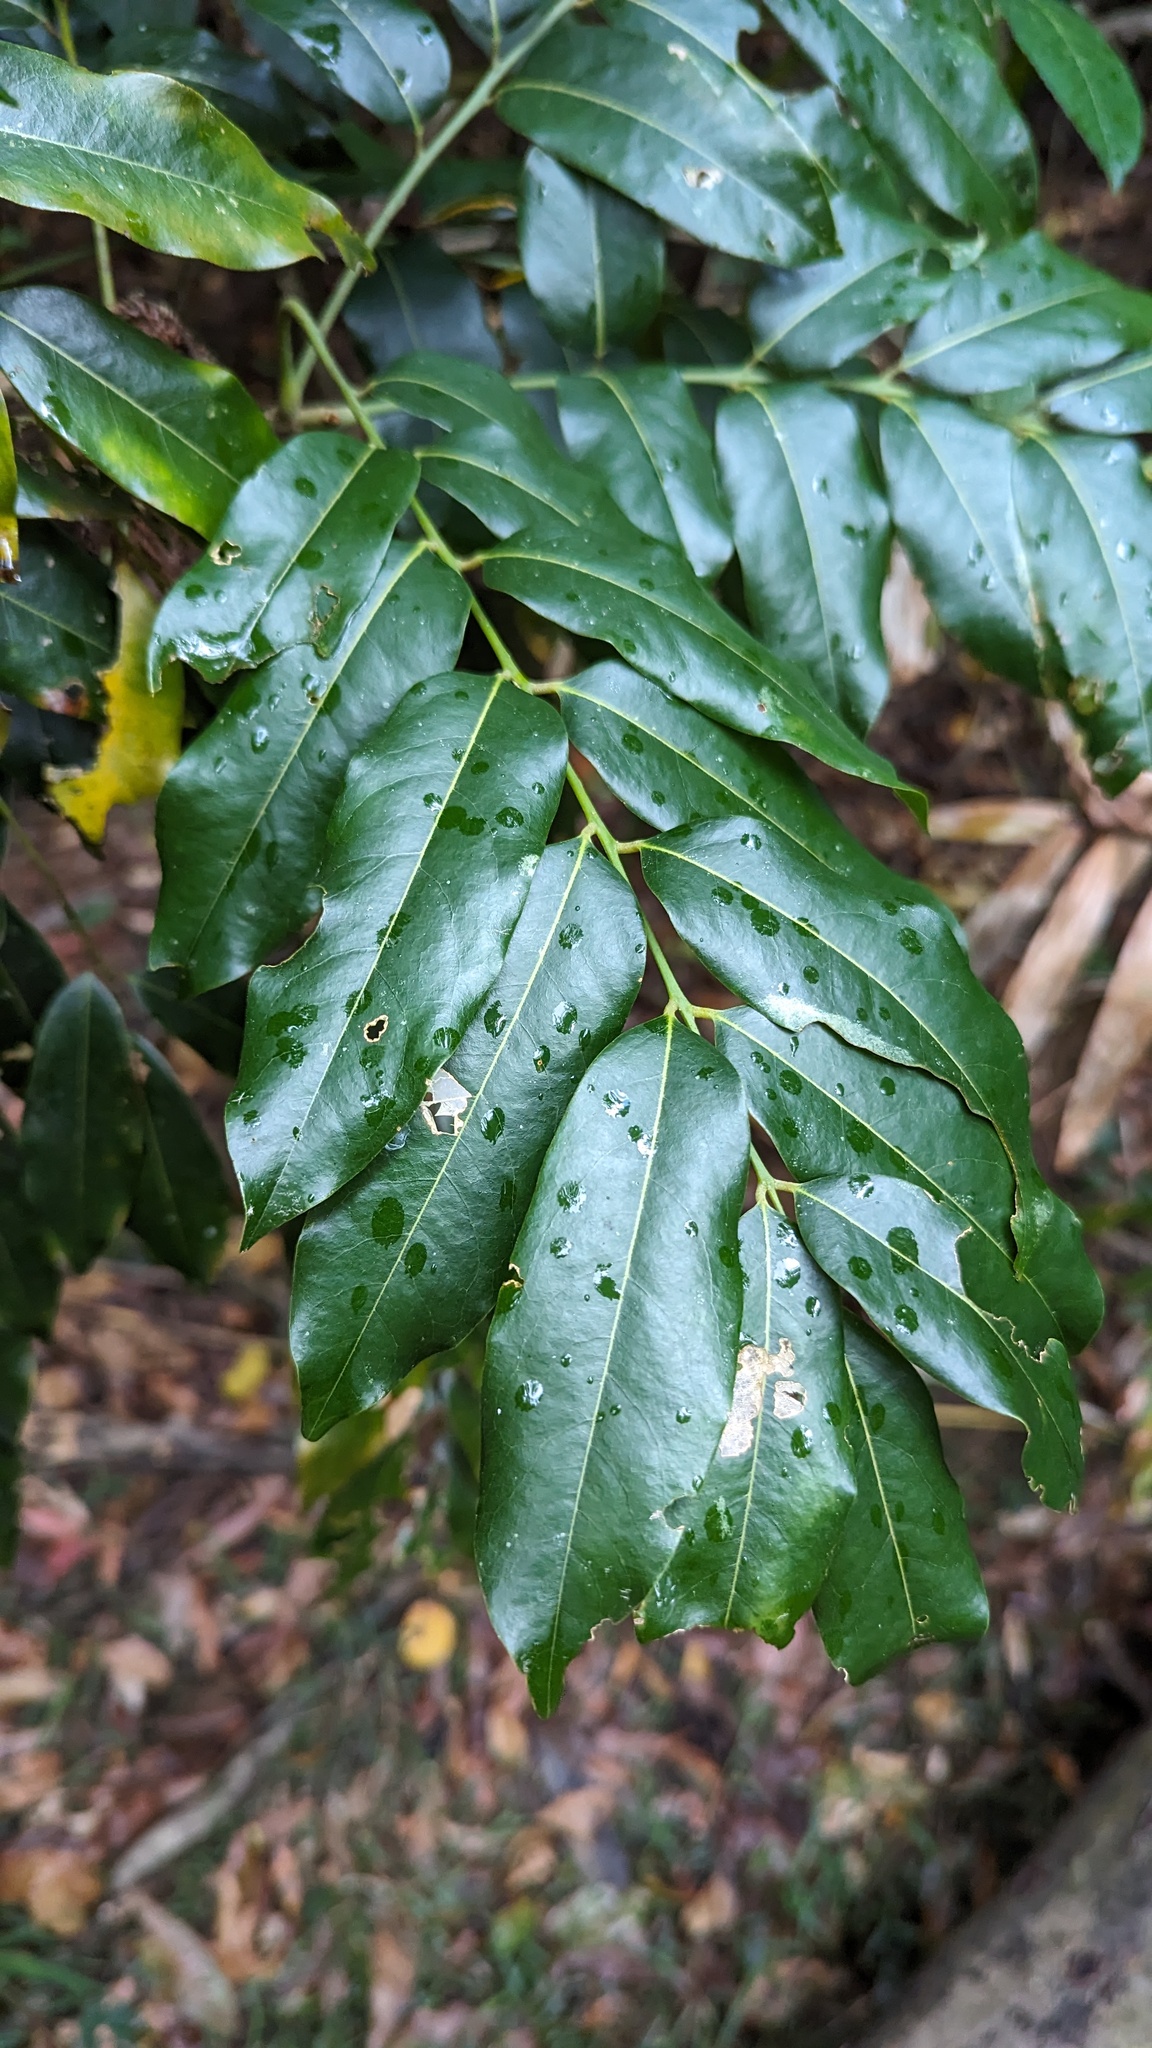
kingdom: Plantae
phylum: Tracheophyta
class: Magnoliopsida
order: Fabales
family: Fabaceae
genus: Castanospermum
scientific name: Castanospermum australe
